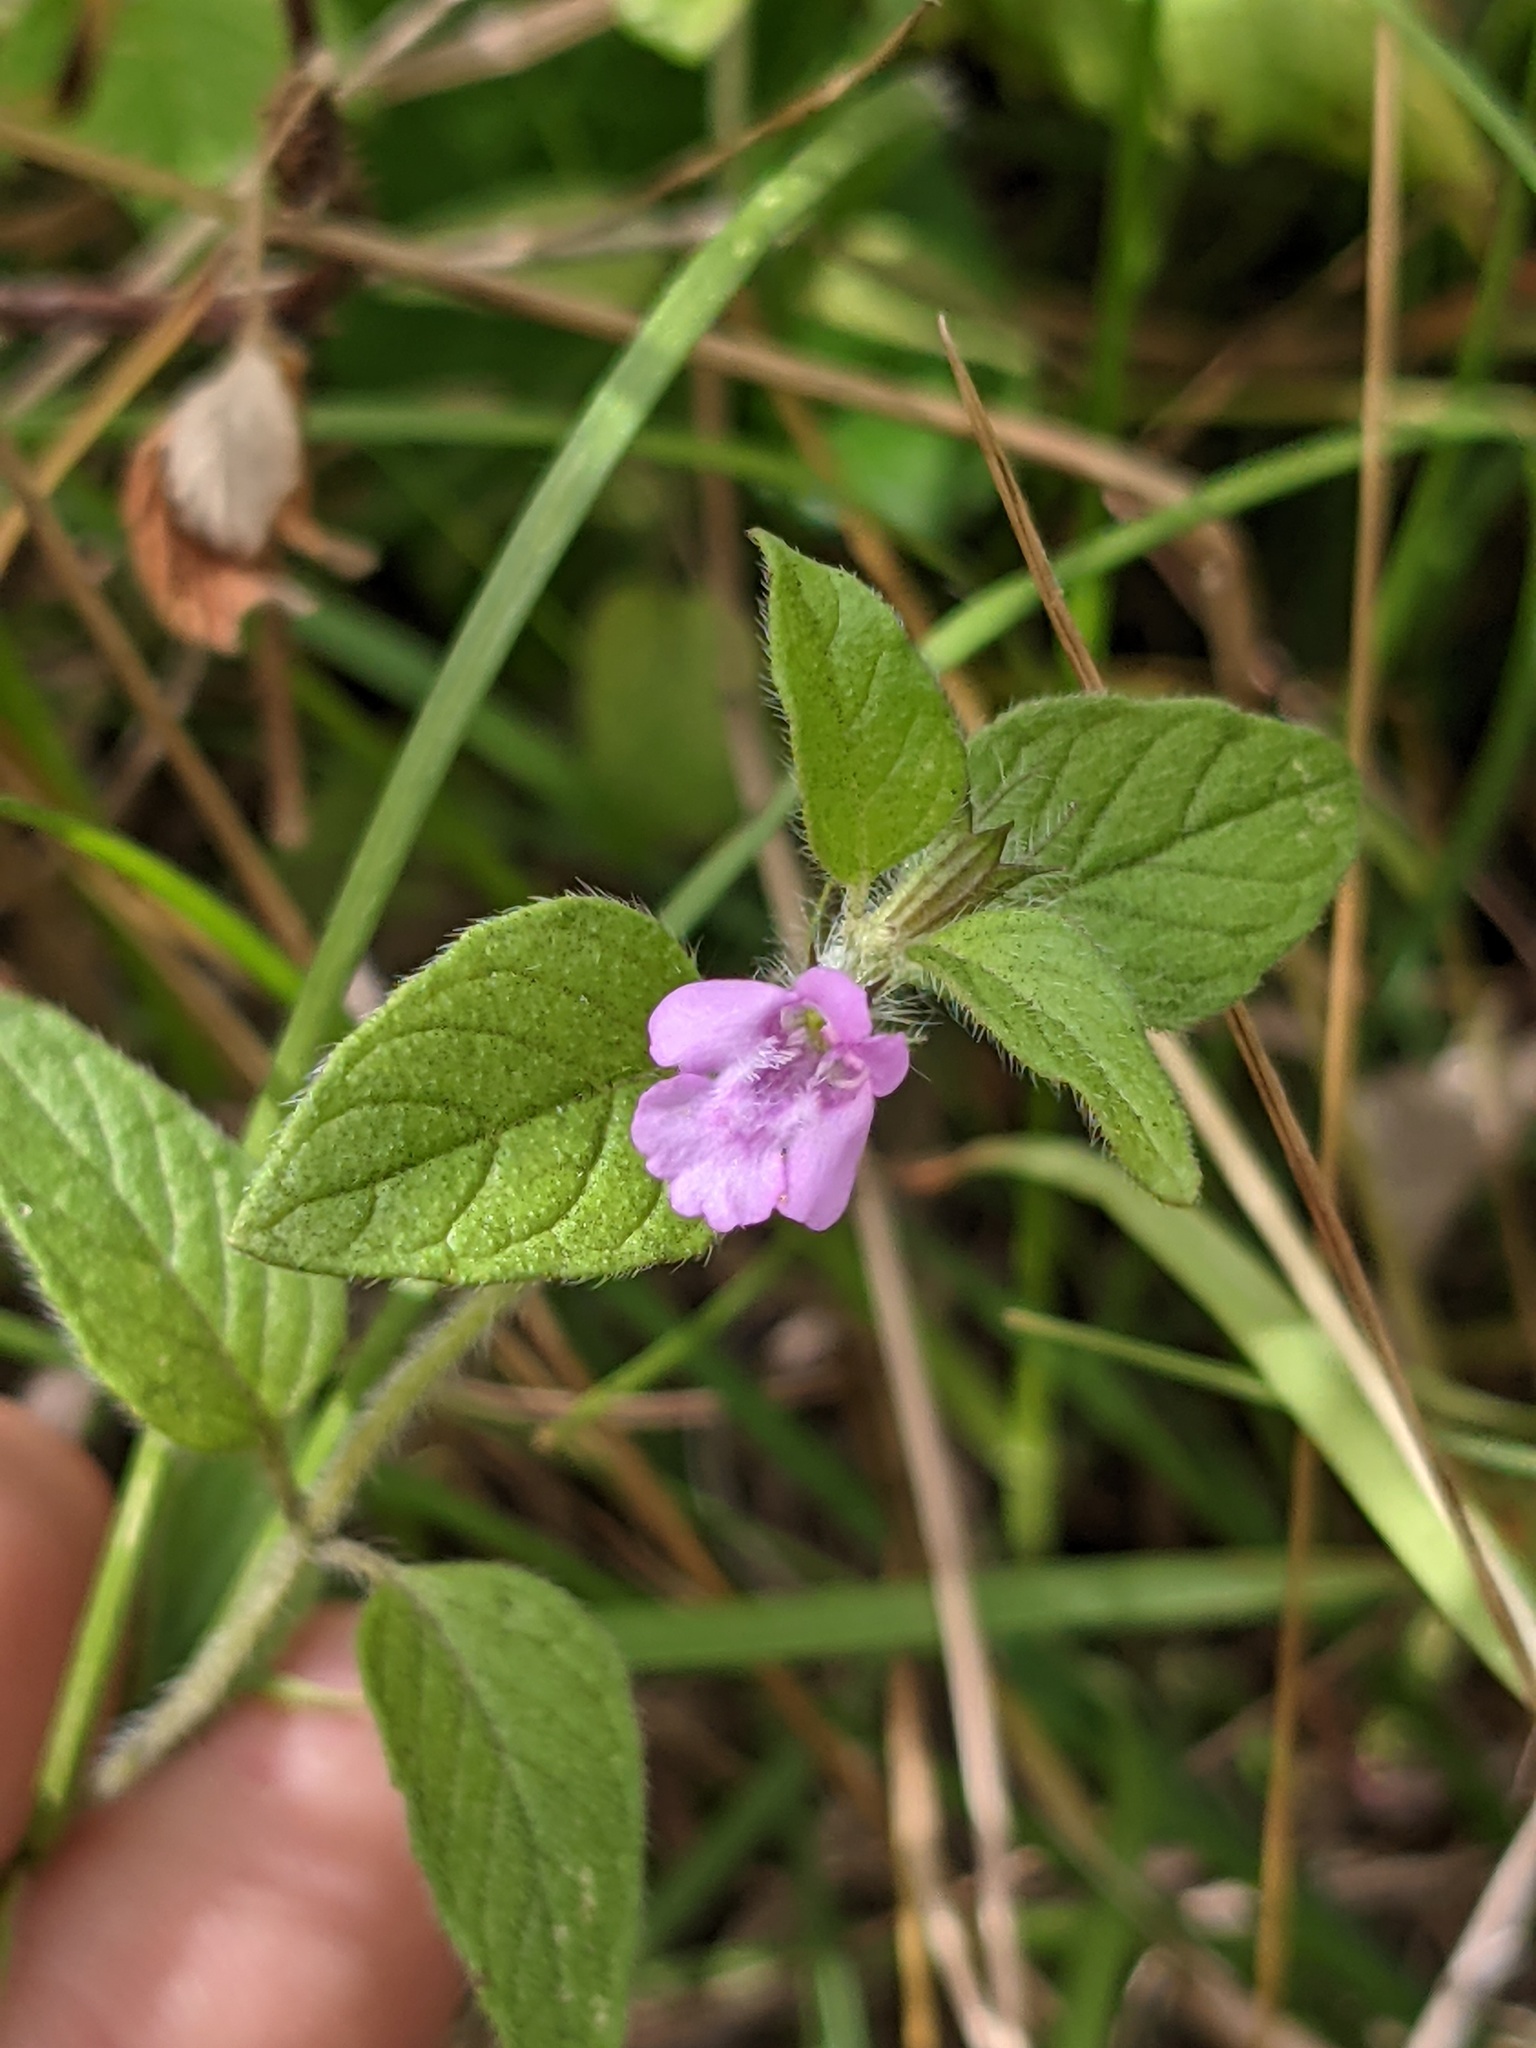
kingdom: Plantae
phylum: Tracheophyta
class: Magnoliopsida
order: Lamiales
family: Lamiaceae
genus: Clinopodium
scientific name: Clinopodium vulgare
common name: Wild basil
